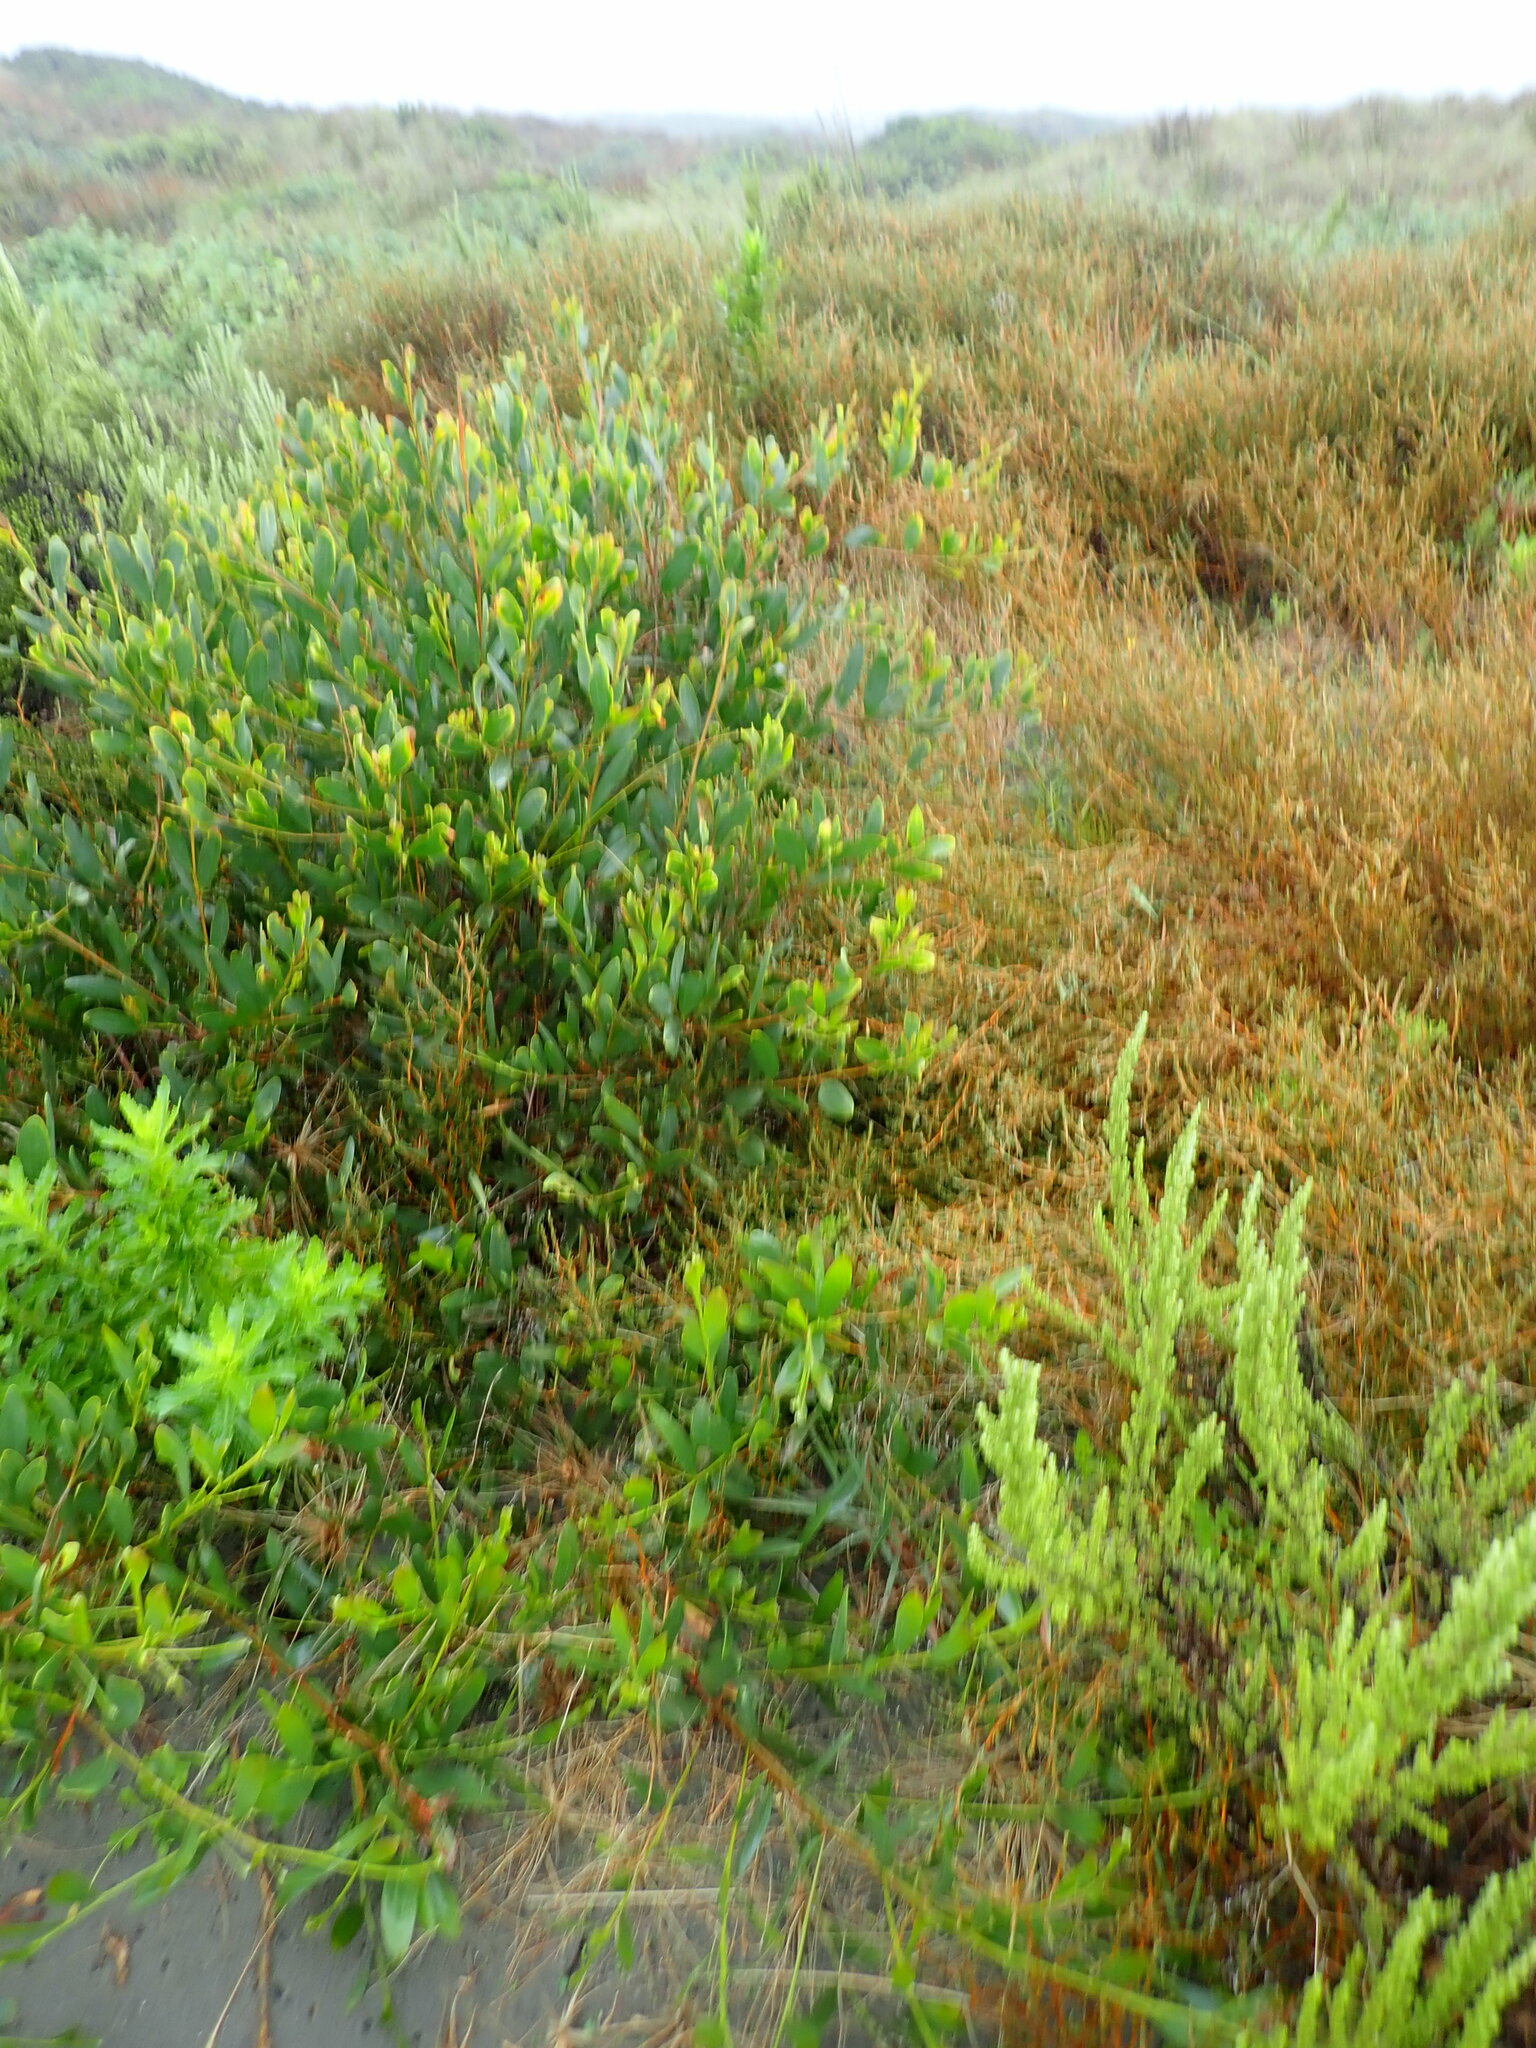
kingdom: Plantae
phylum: Tracheophyta
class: Magnoliopsida
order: Fabales
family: Fabaceae
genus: Acacia
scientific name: Acacia longifolia
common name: Sydney golden wattle
